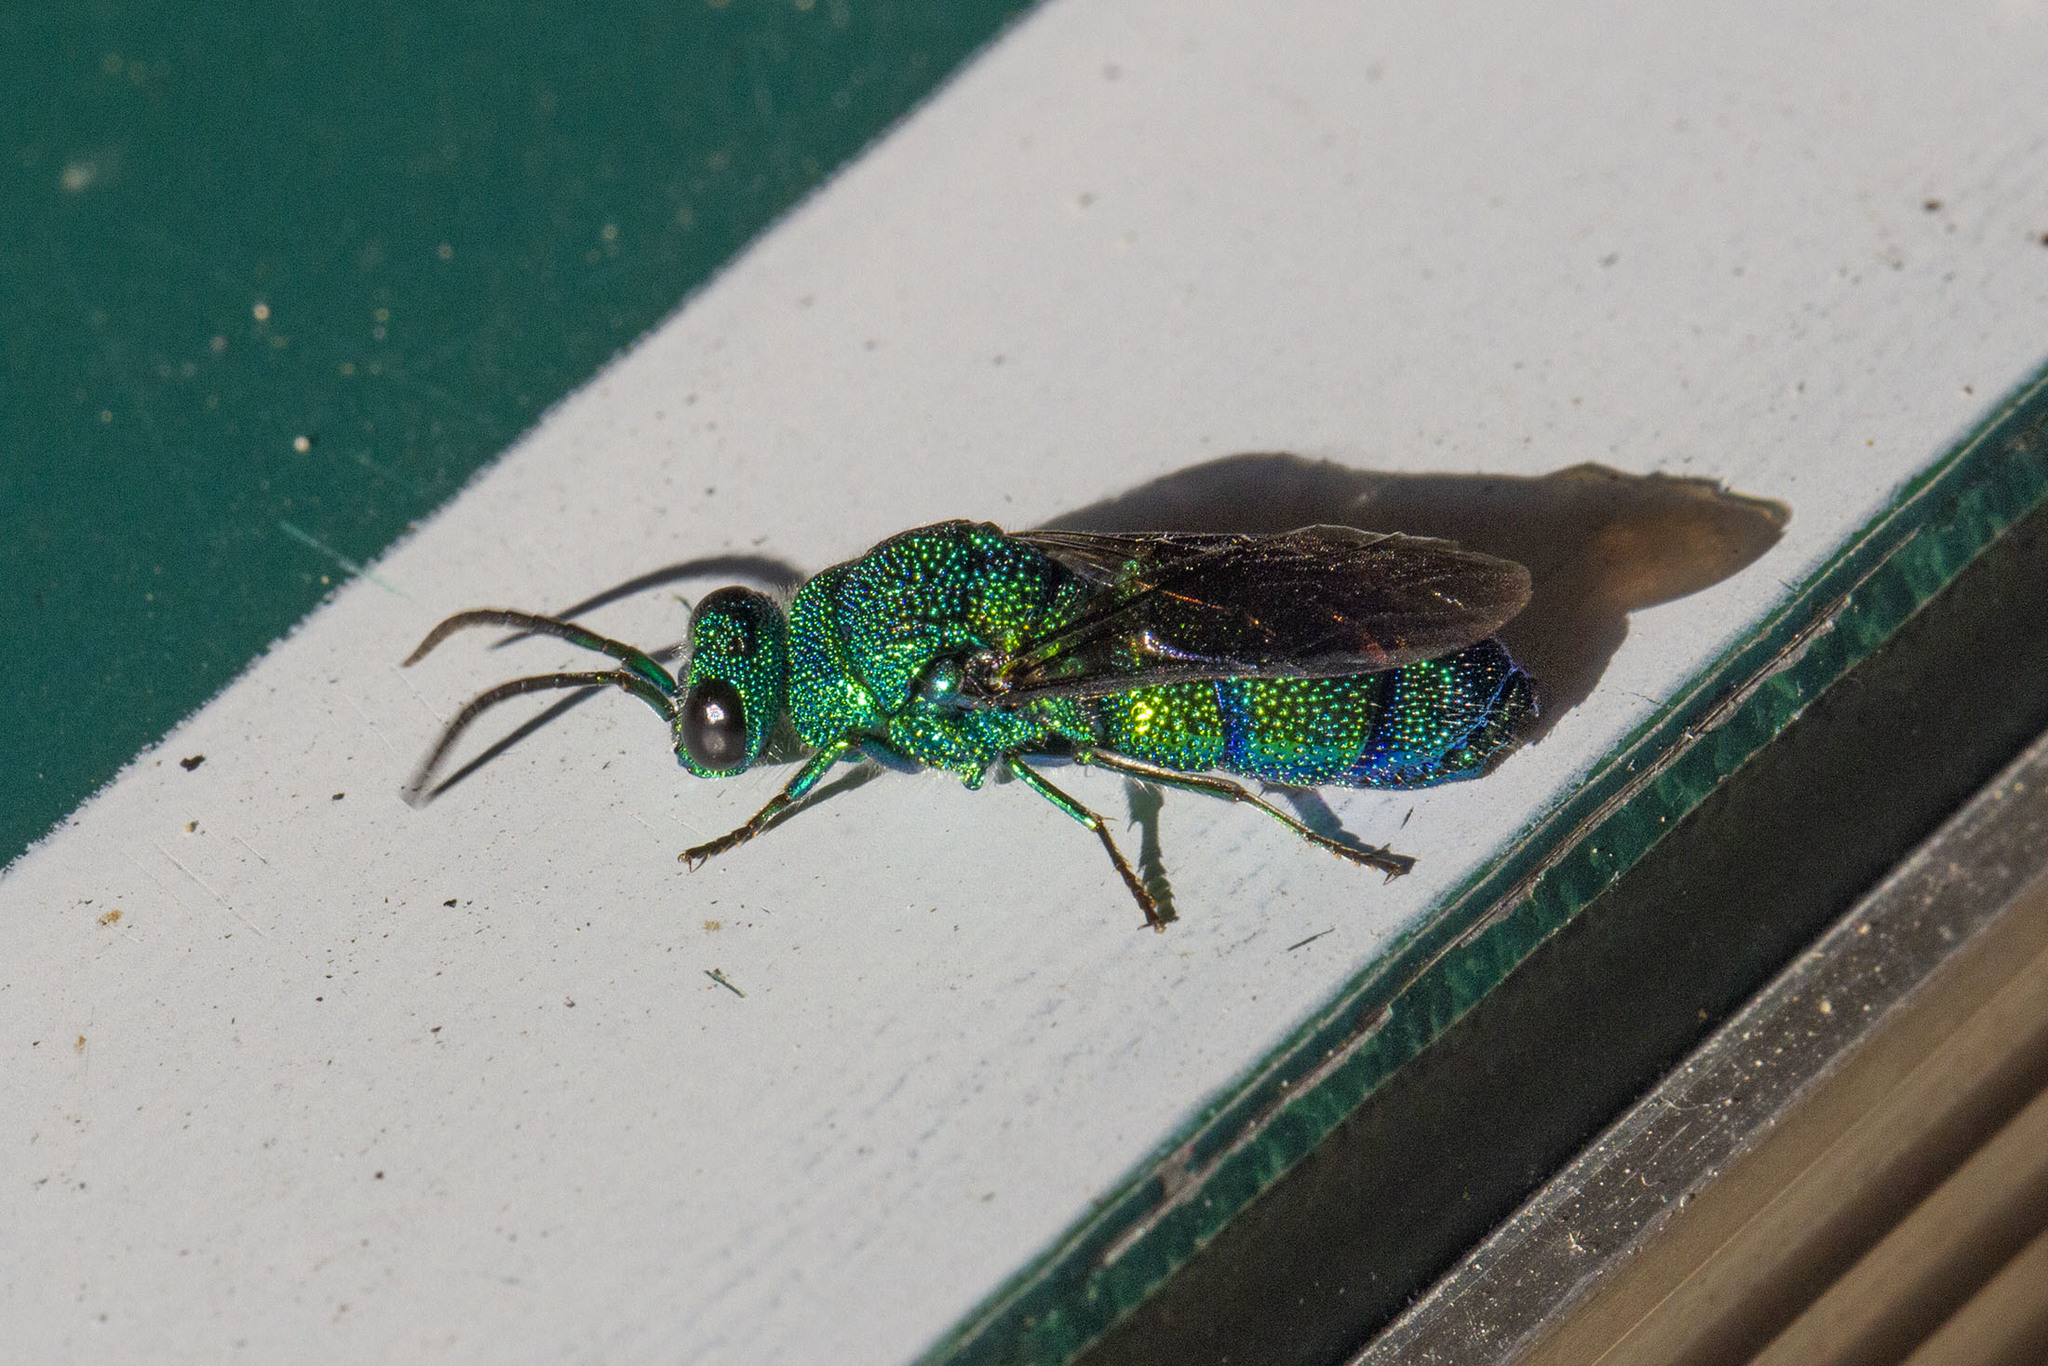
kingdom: Animalia
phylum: Arthropoda
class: Insecta
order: Hymenoptera
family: Chrysididae
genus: Chrysis
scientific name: Chrysis smaragdula
